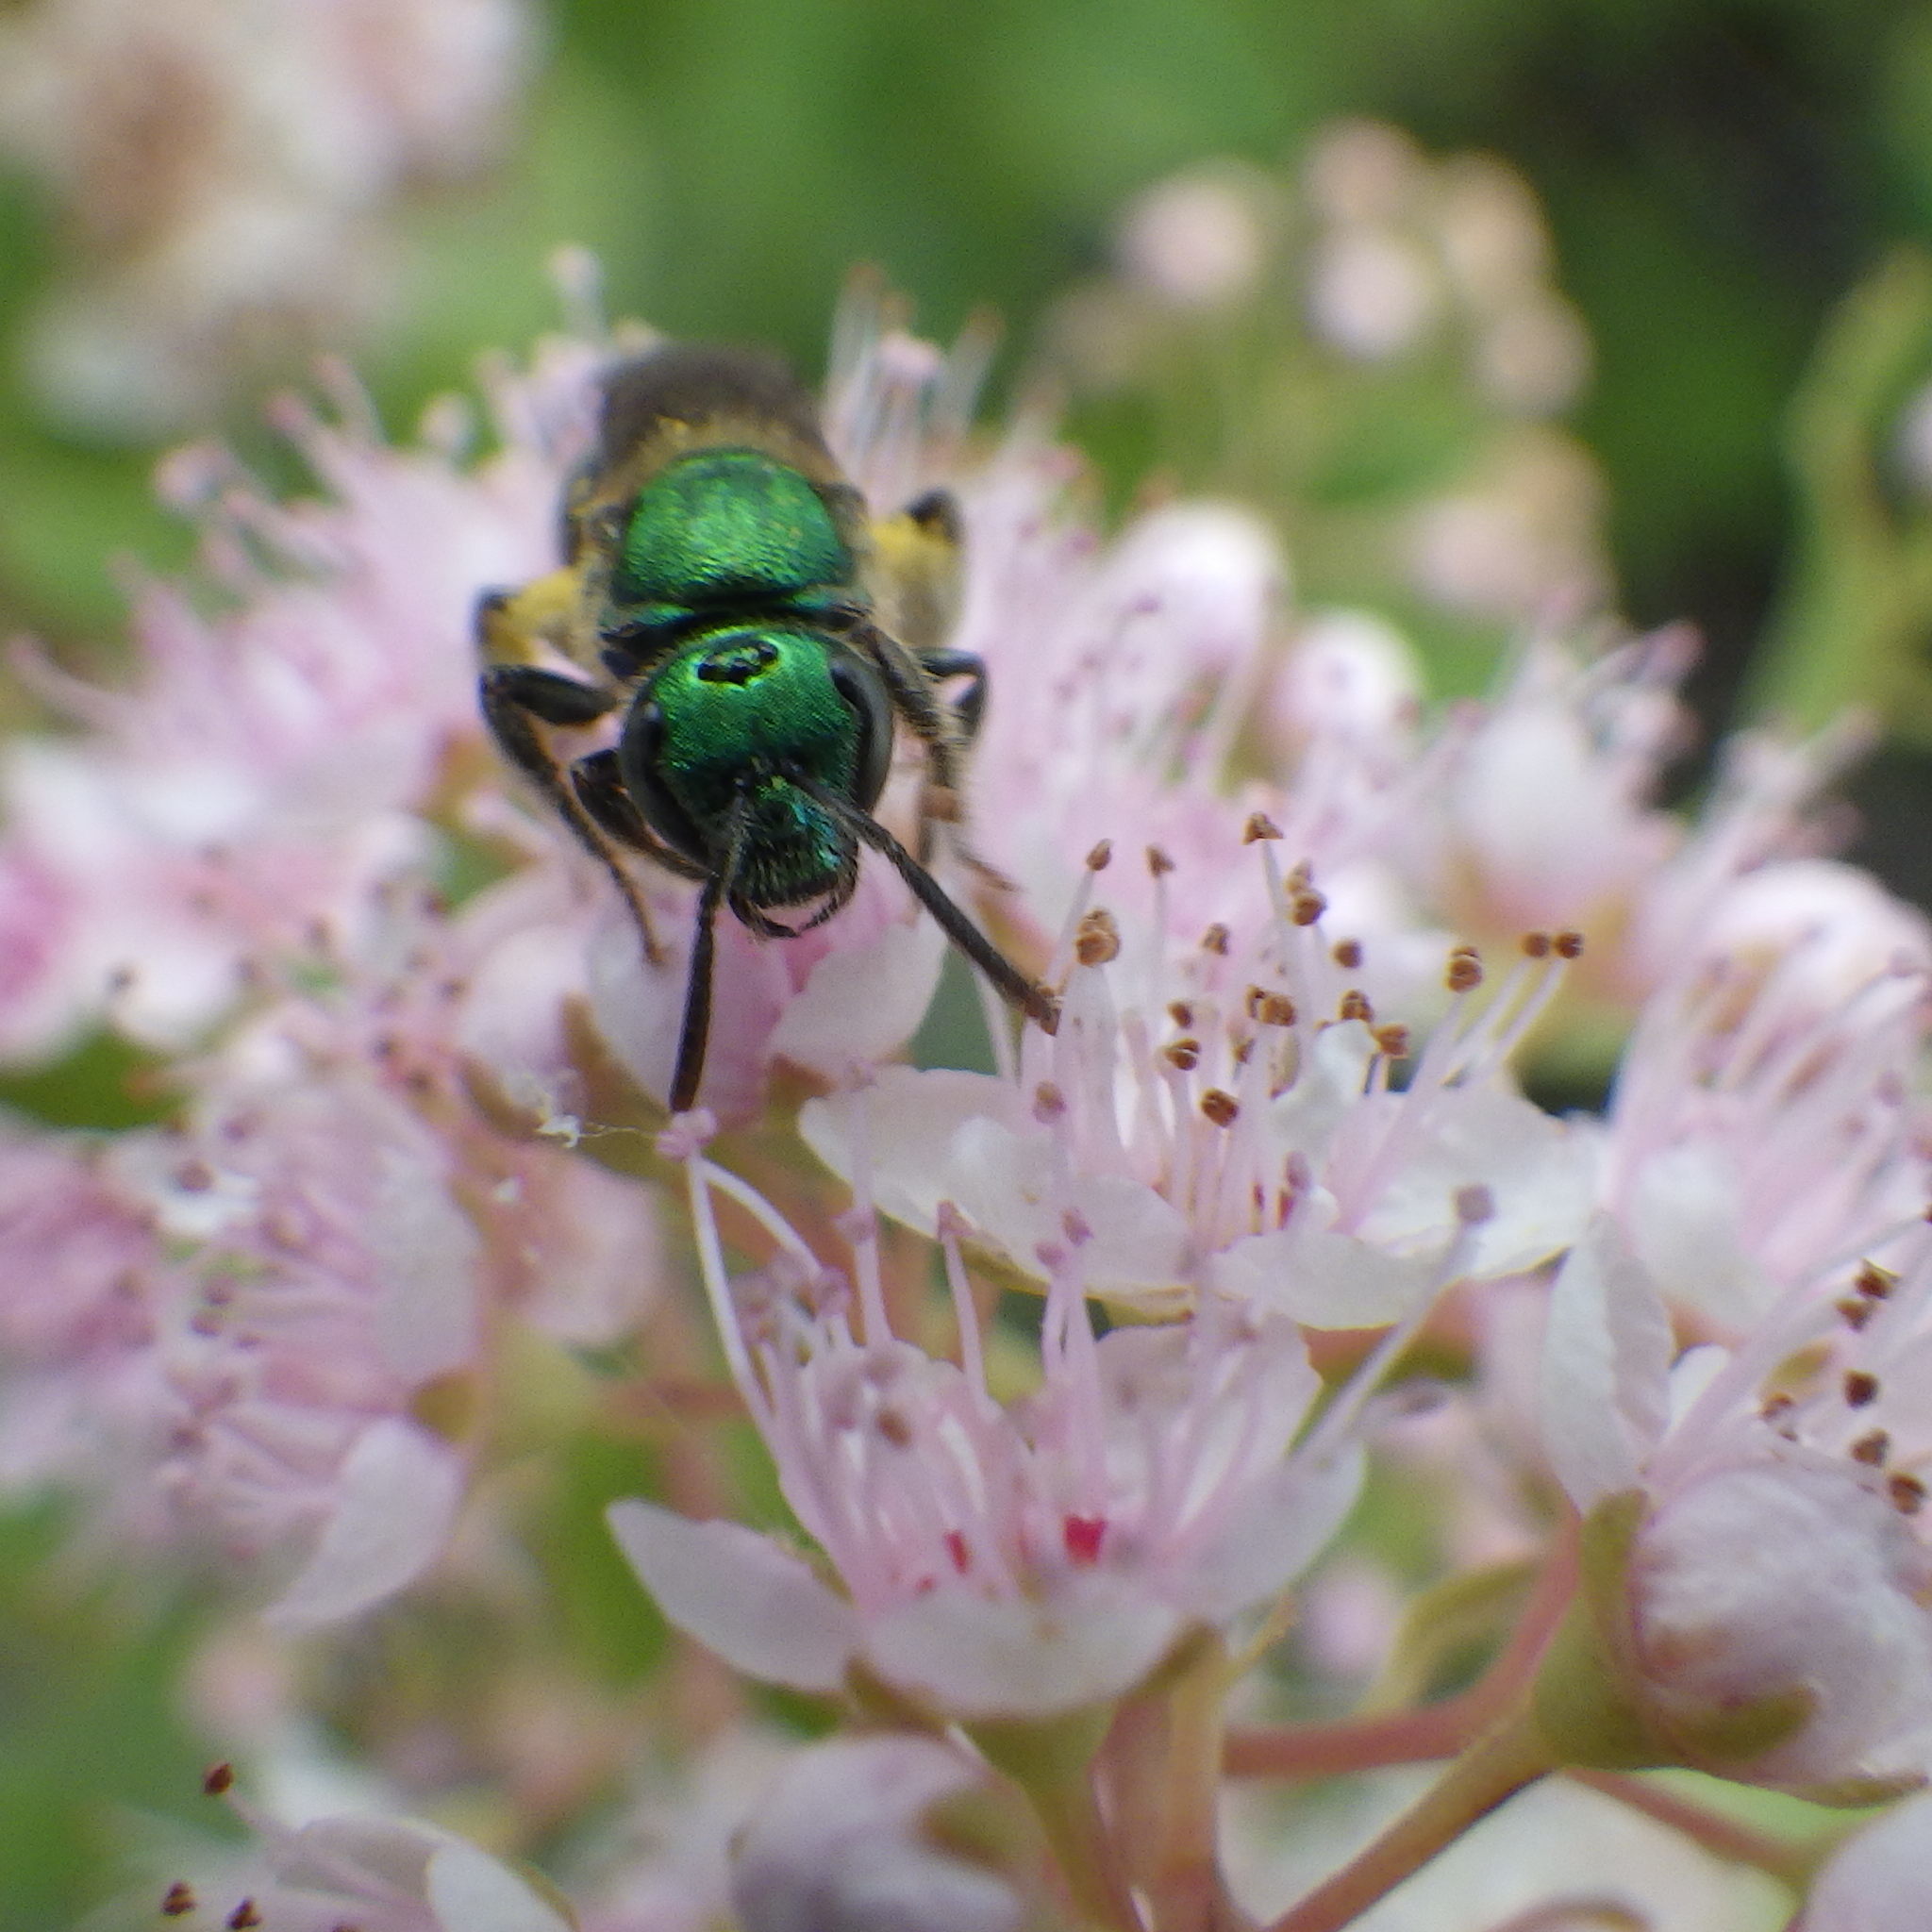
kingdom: Animalia
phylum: Arthropoda
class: Insecta
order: Hymenoptera
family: Halictidae
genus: Augochlorella
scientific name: Augochlorella aurata
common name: Golden sweat bee
